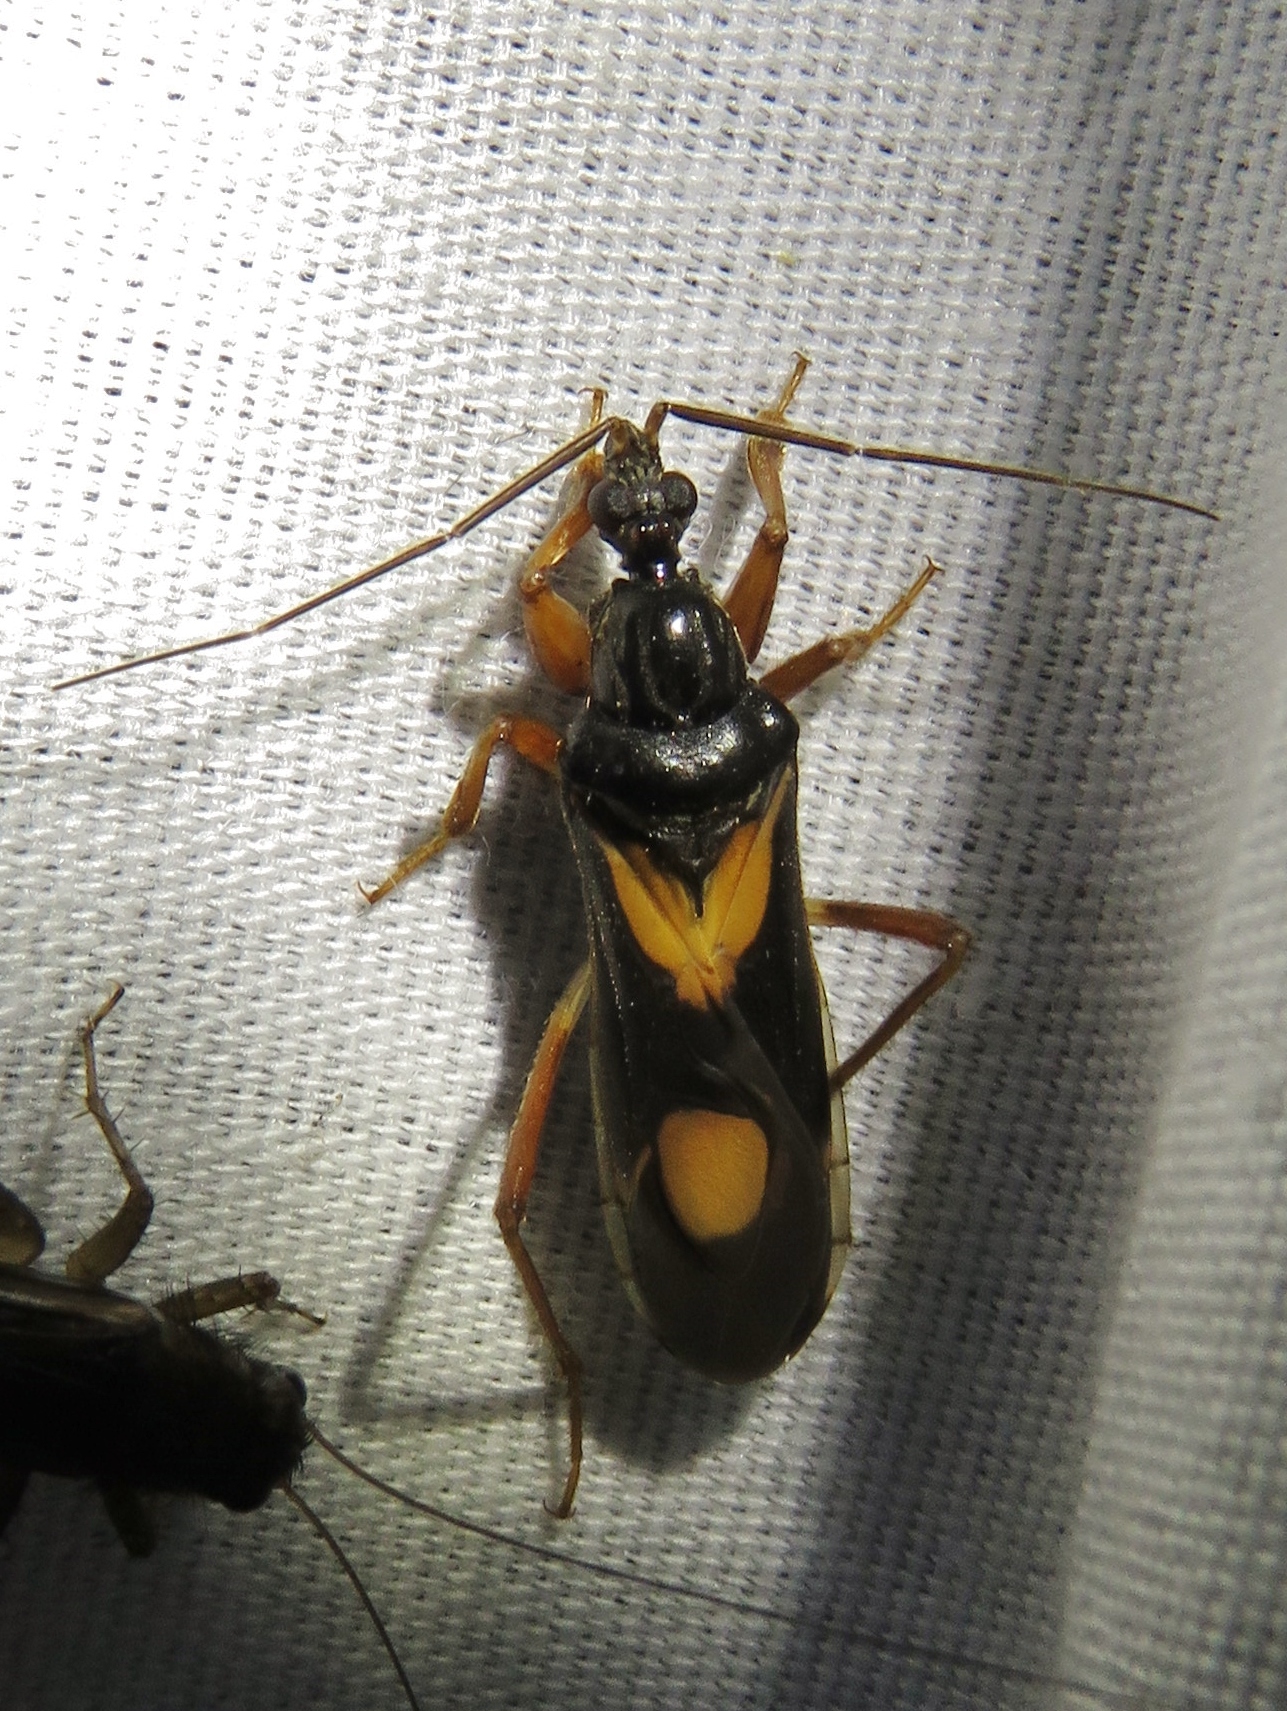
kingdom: Animalia
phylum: Arthropoda
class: Insecta
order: Hemiptera
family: Reduviidae
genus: Rasahus
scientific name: Rasahus hamatus
